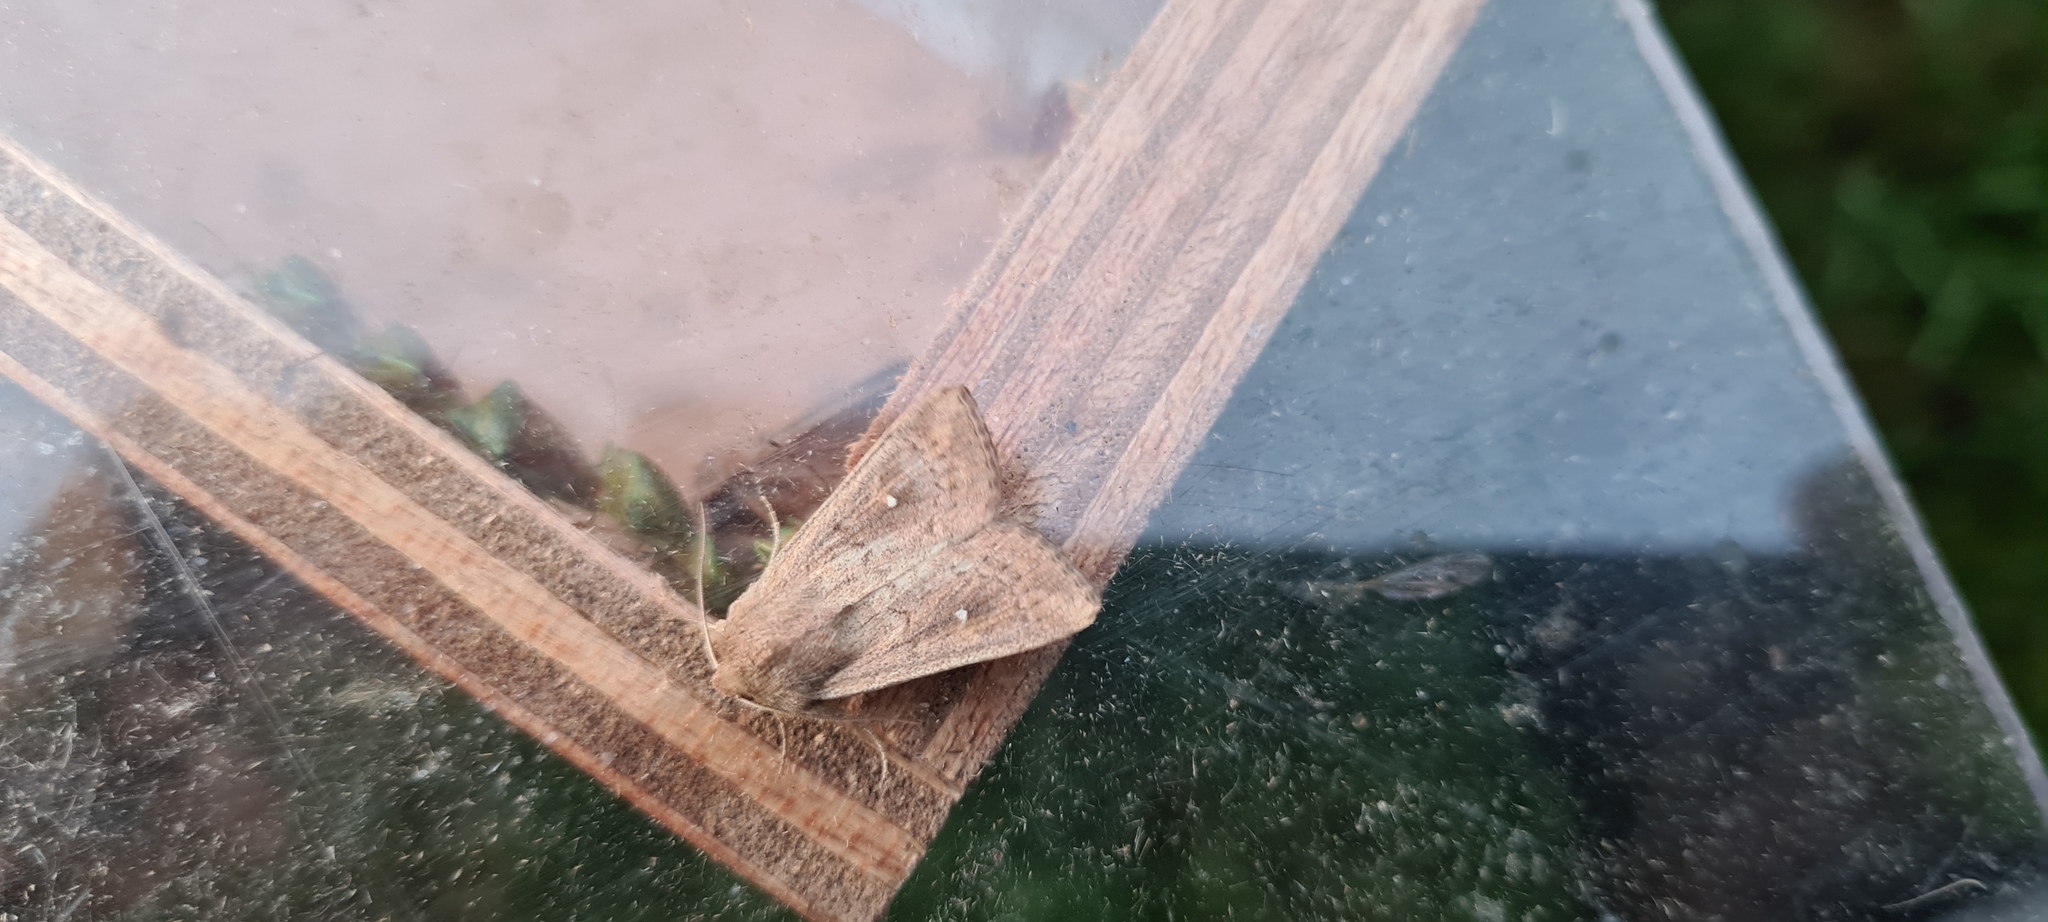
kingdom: Animalia
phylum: Arthropoda
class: Insecta
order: Lepidoptera
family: Noctuidae
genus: Mythimna
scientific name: Mythimna albipuncta
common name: White-point
